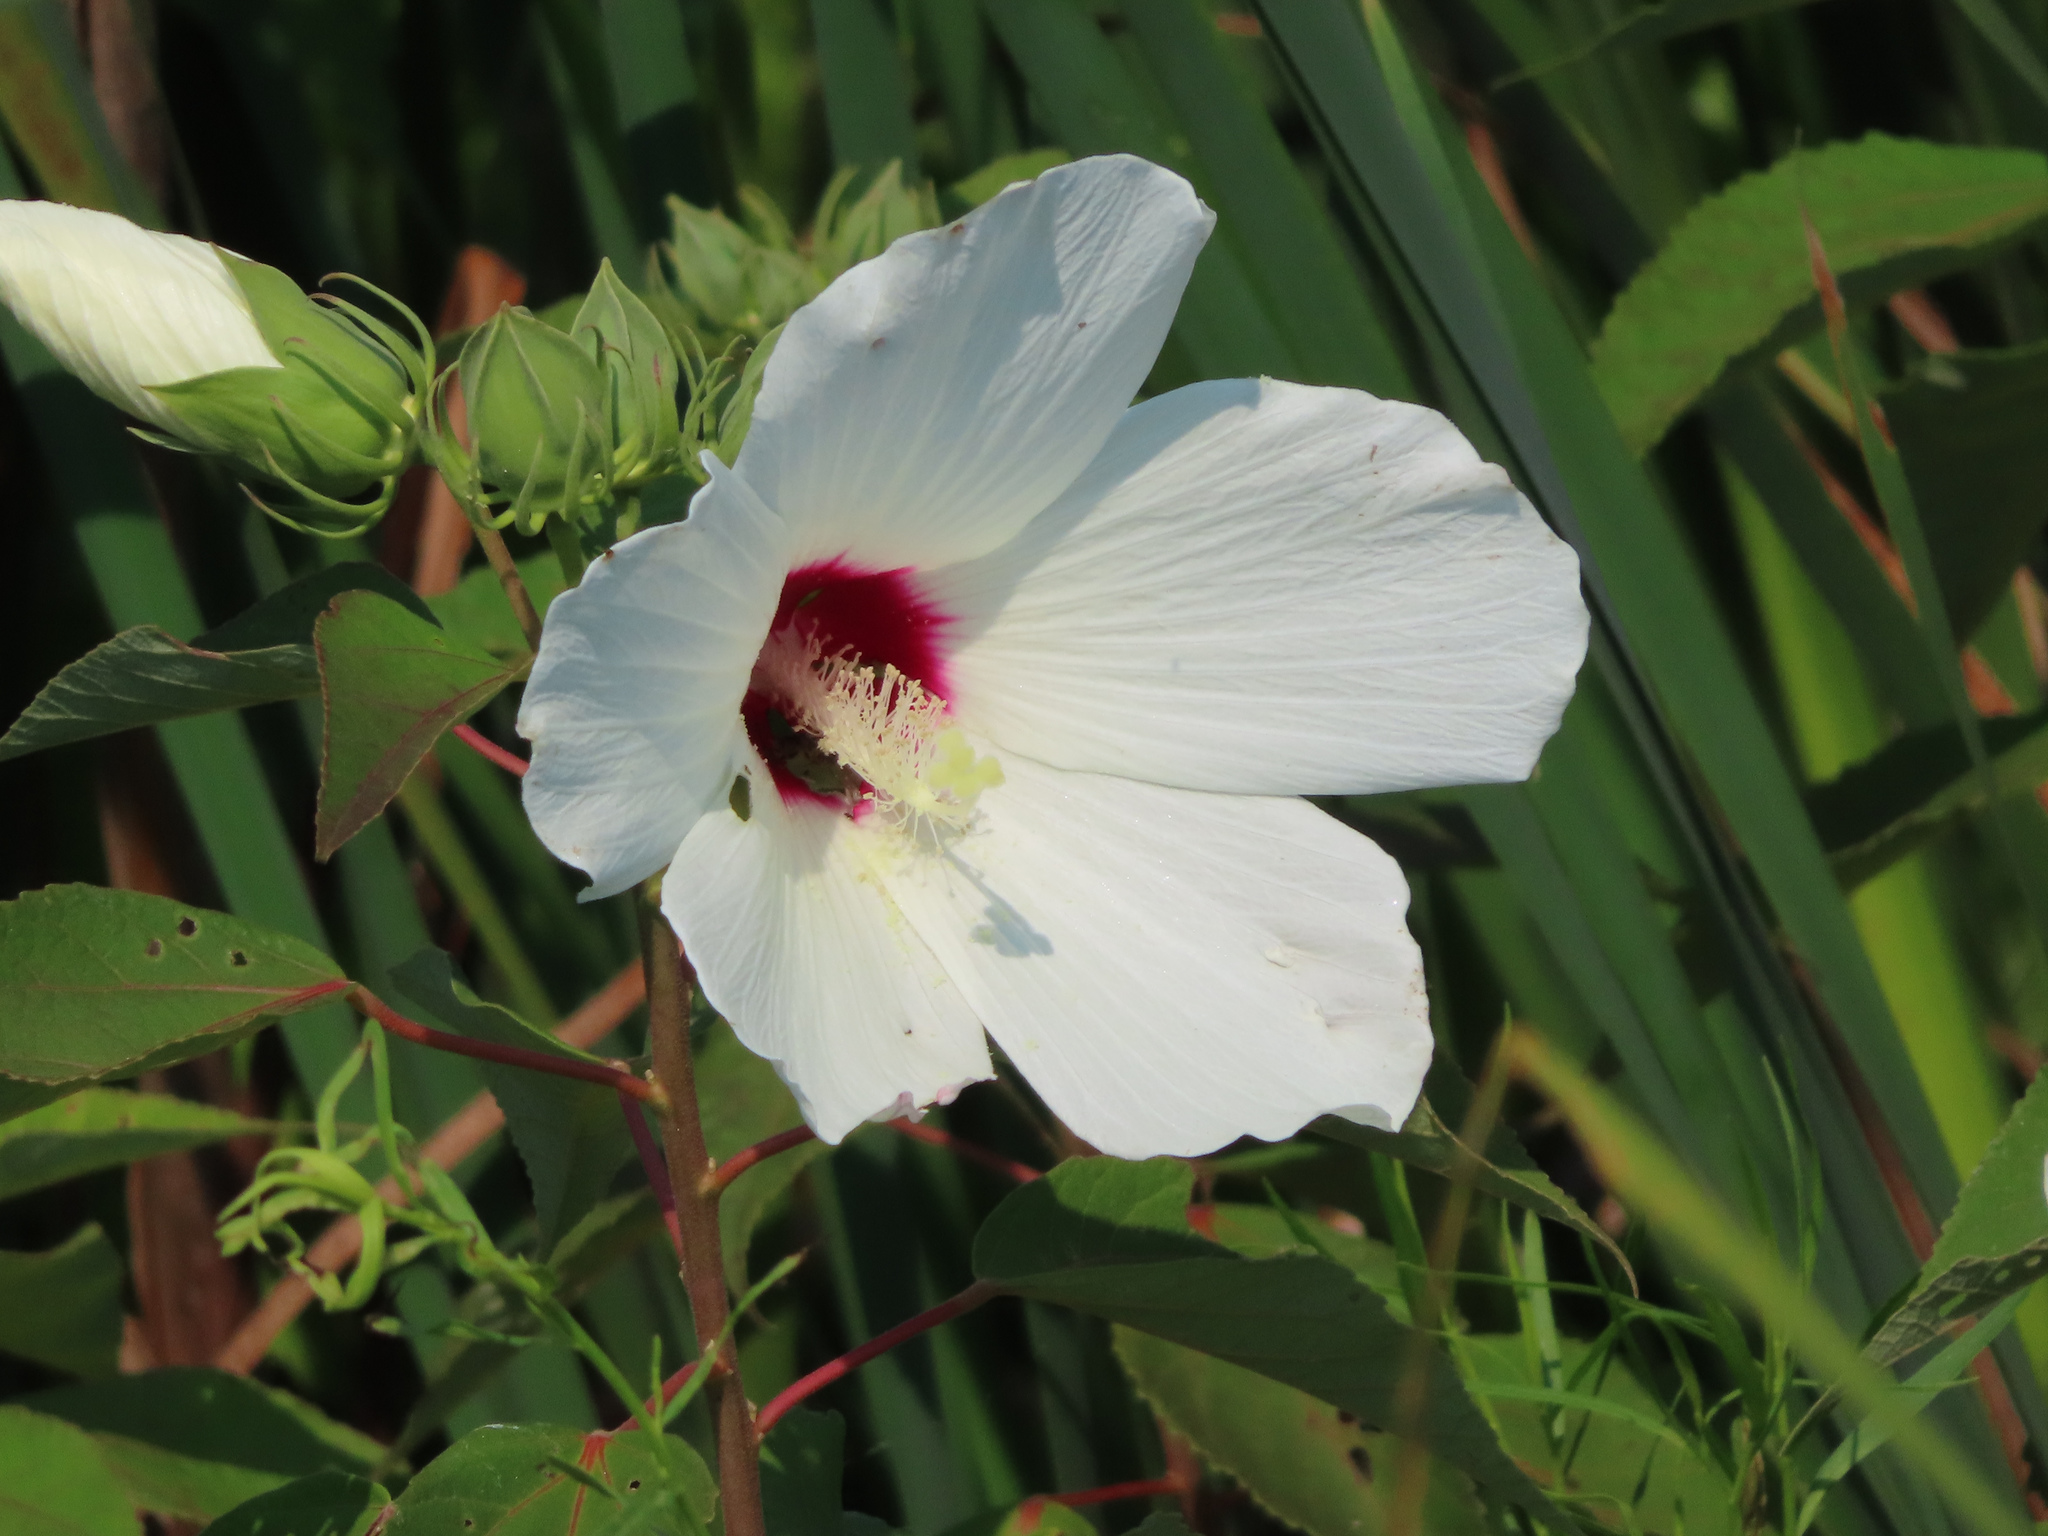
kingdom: Plantae
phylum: Tracheophyta
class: Magnoliopsida
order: Malvales
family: Malvaceae
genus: Hibiscus
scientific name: Hibiscus moscheutos
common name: Common rose-mallow
